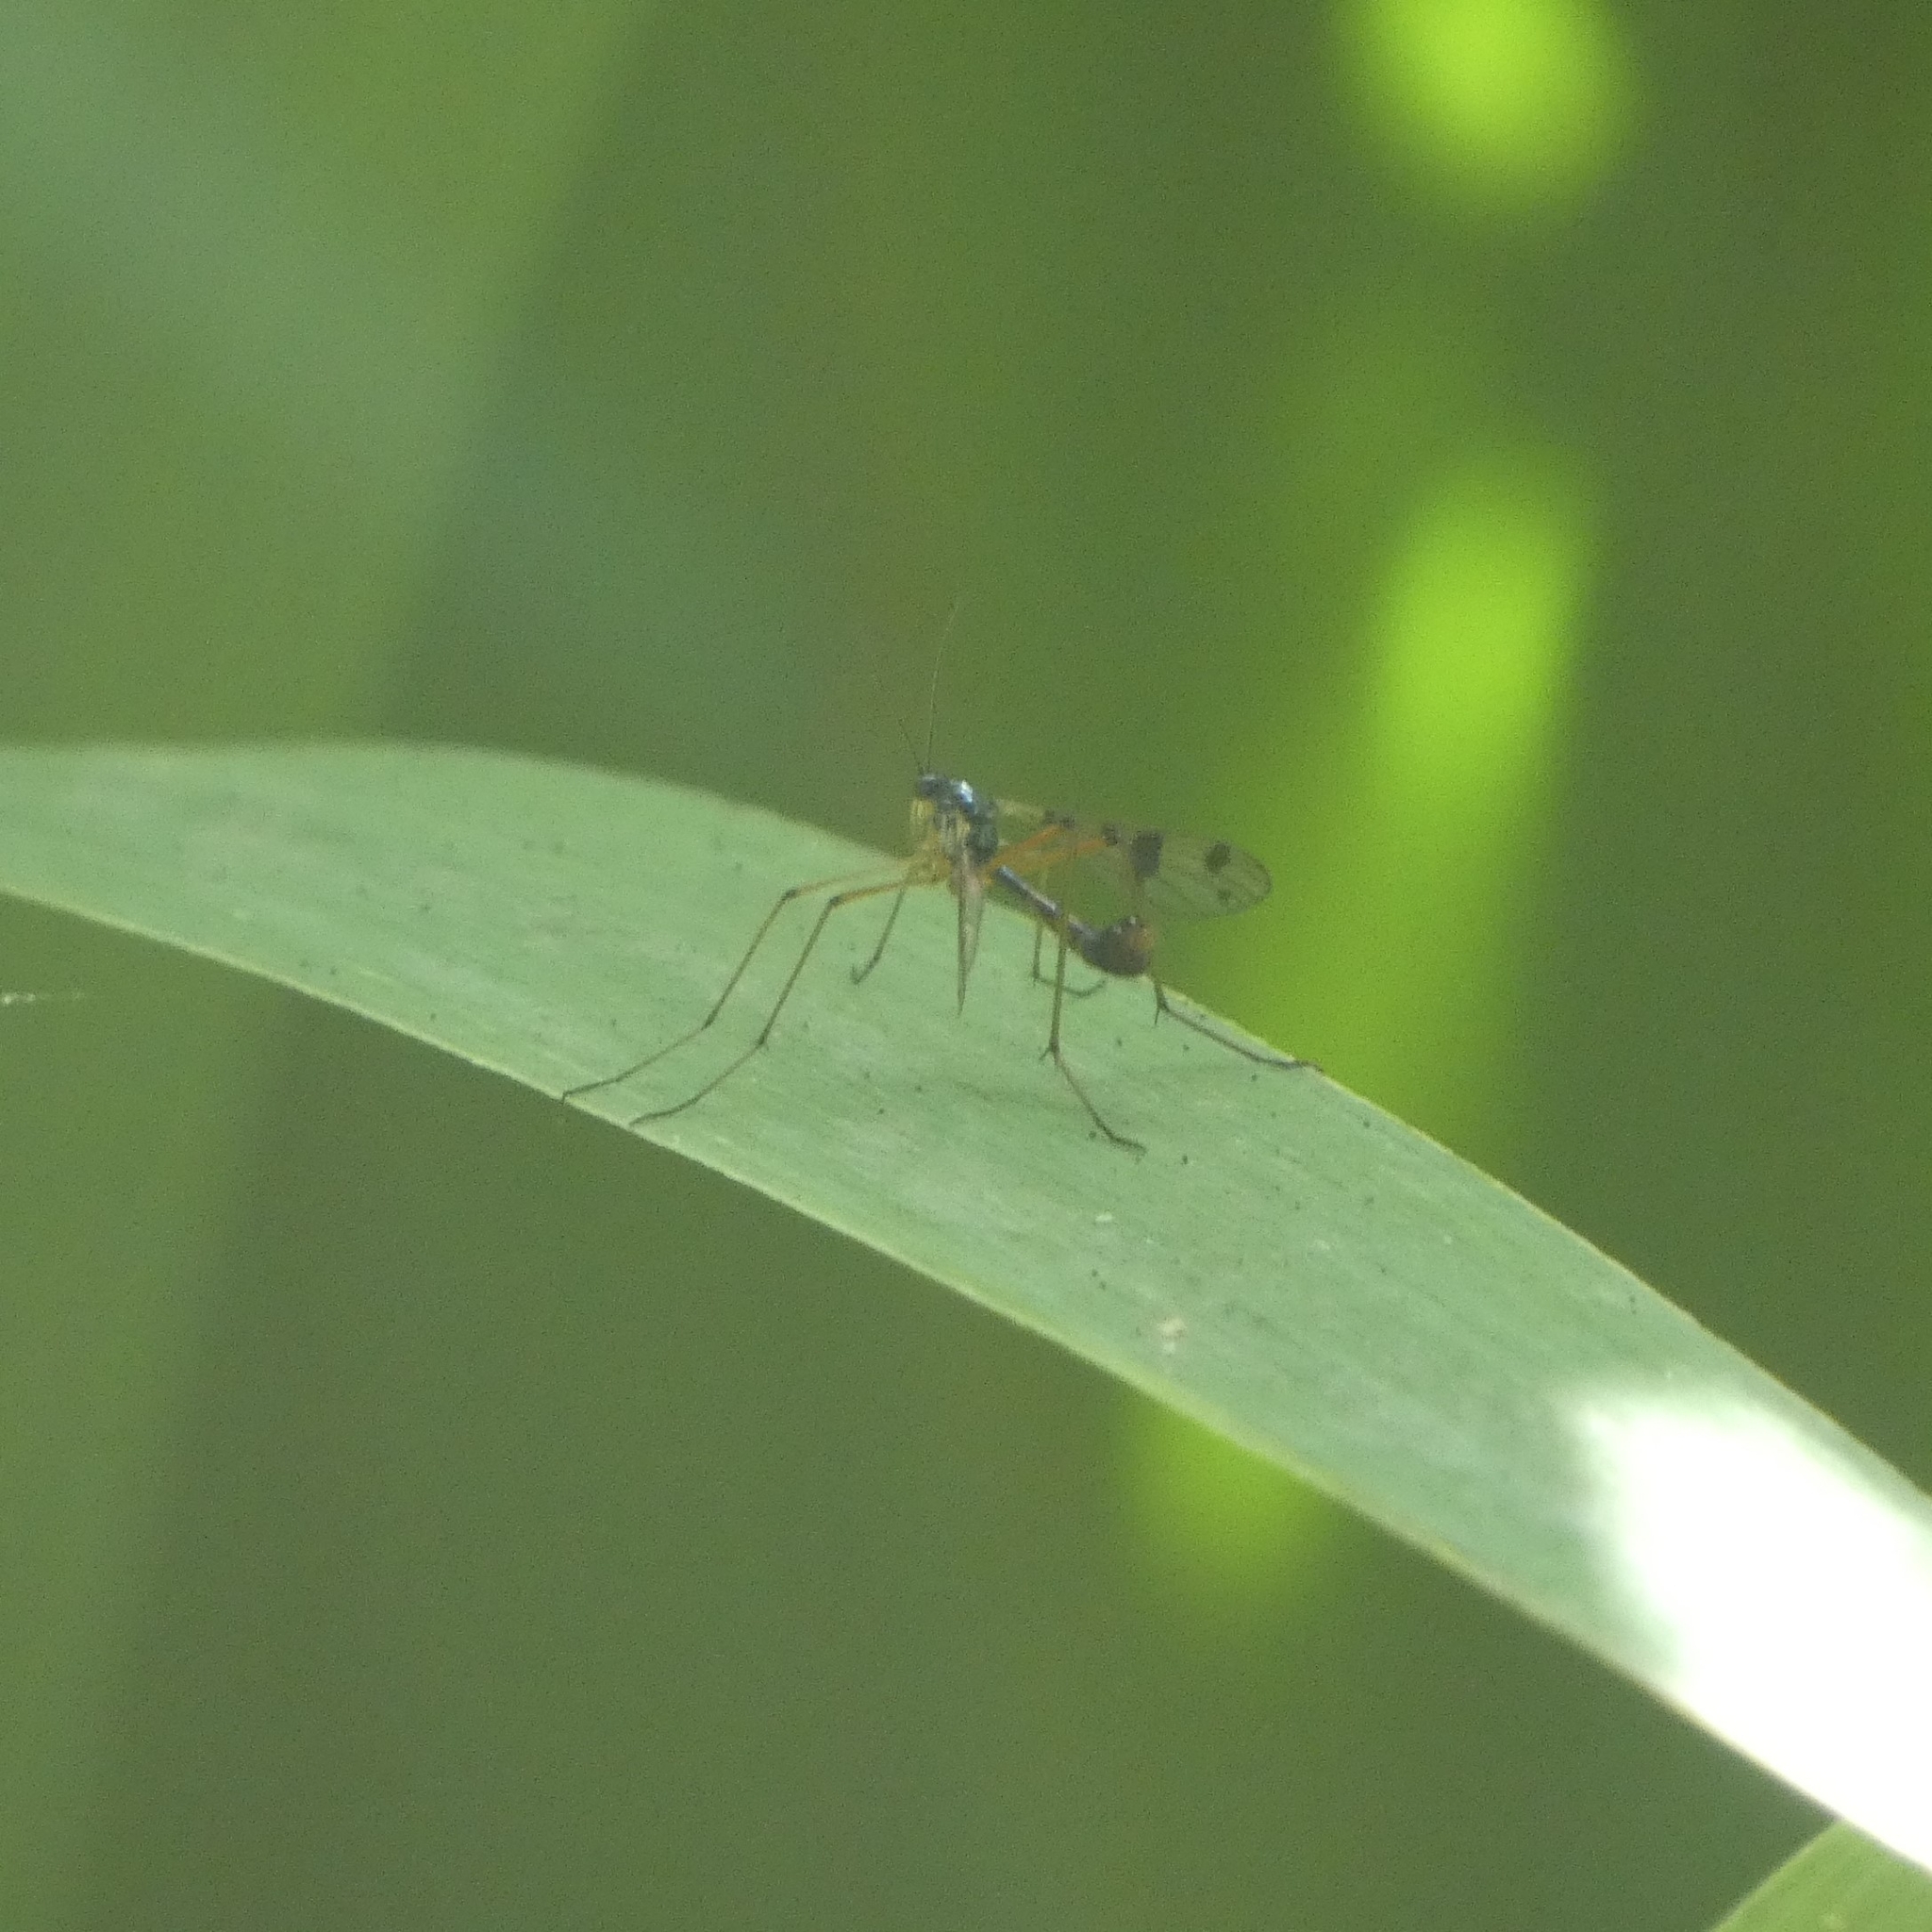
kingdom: Animalia
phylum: Arthropoda
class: Insecta
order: Diptera
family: Ptychopteridae
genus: Ptychoptera
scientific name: Ptychoptera contaminata
